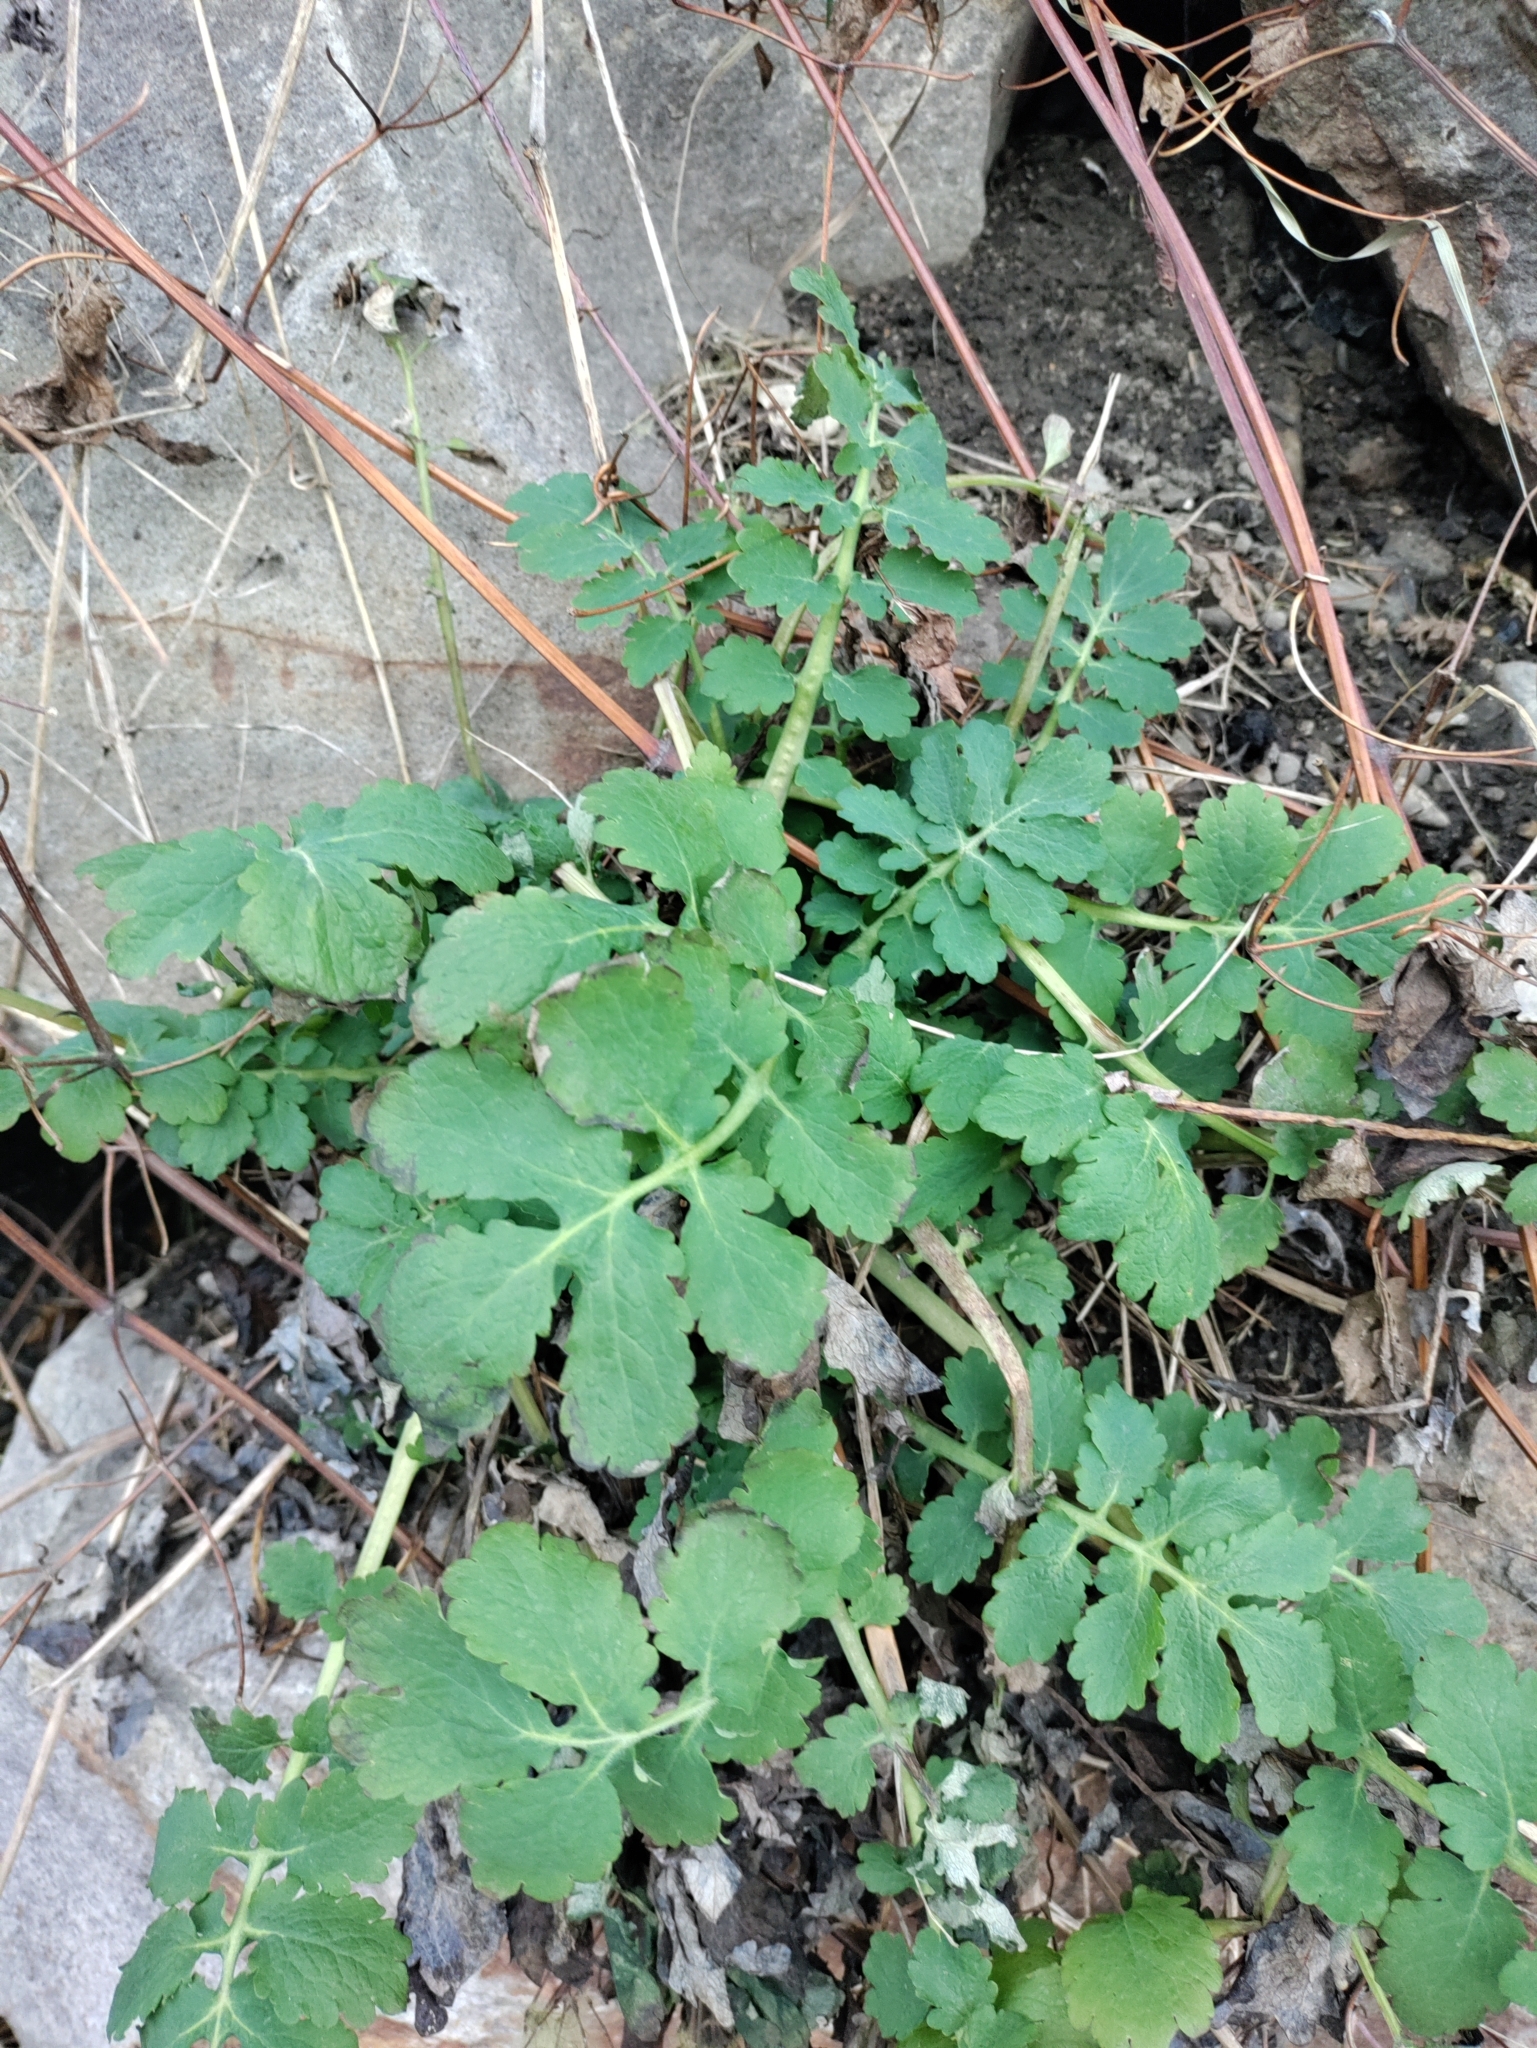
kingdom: Plantae
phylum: Tracheophyta
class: Magnoliopsida
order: Ranunculales
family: Papaveraceae
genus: Chelidonium
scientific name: Chelidonium majus
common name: Greater celandine
